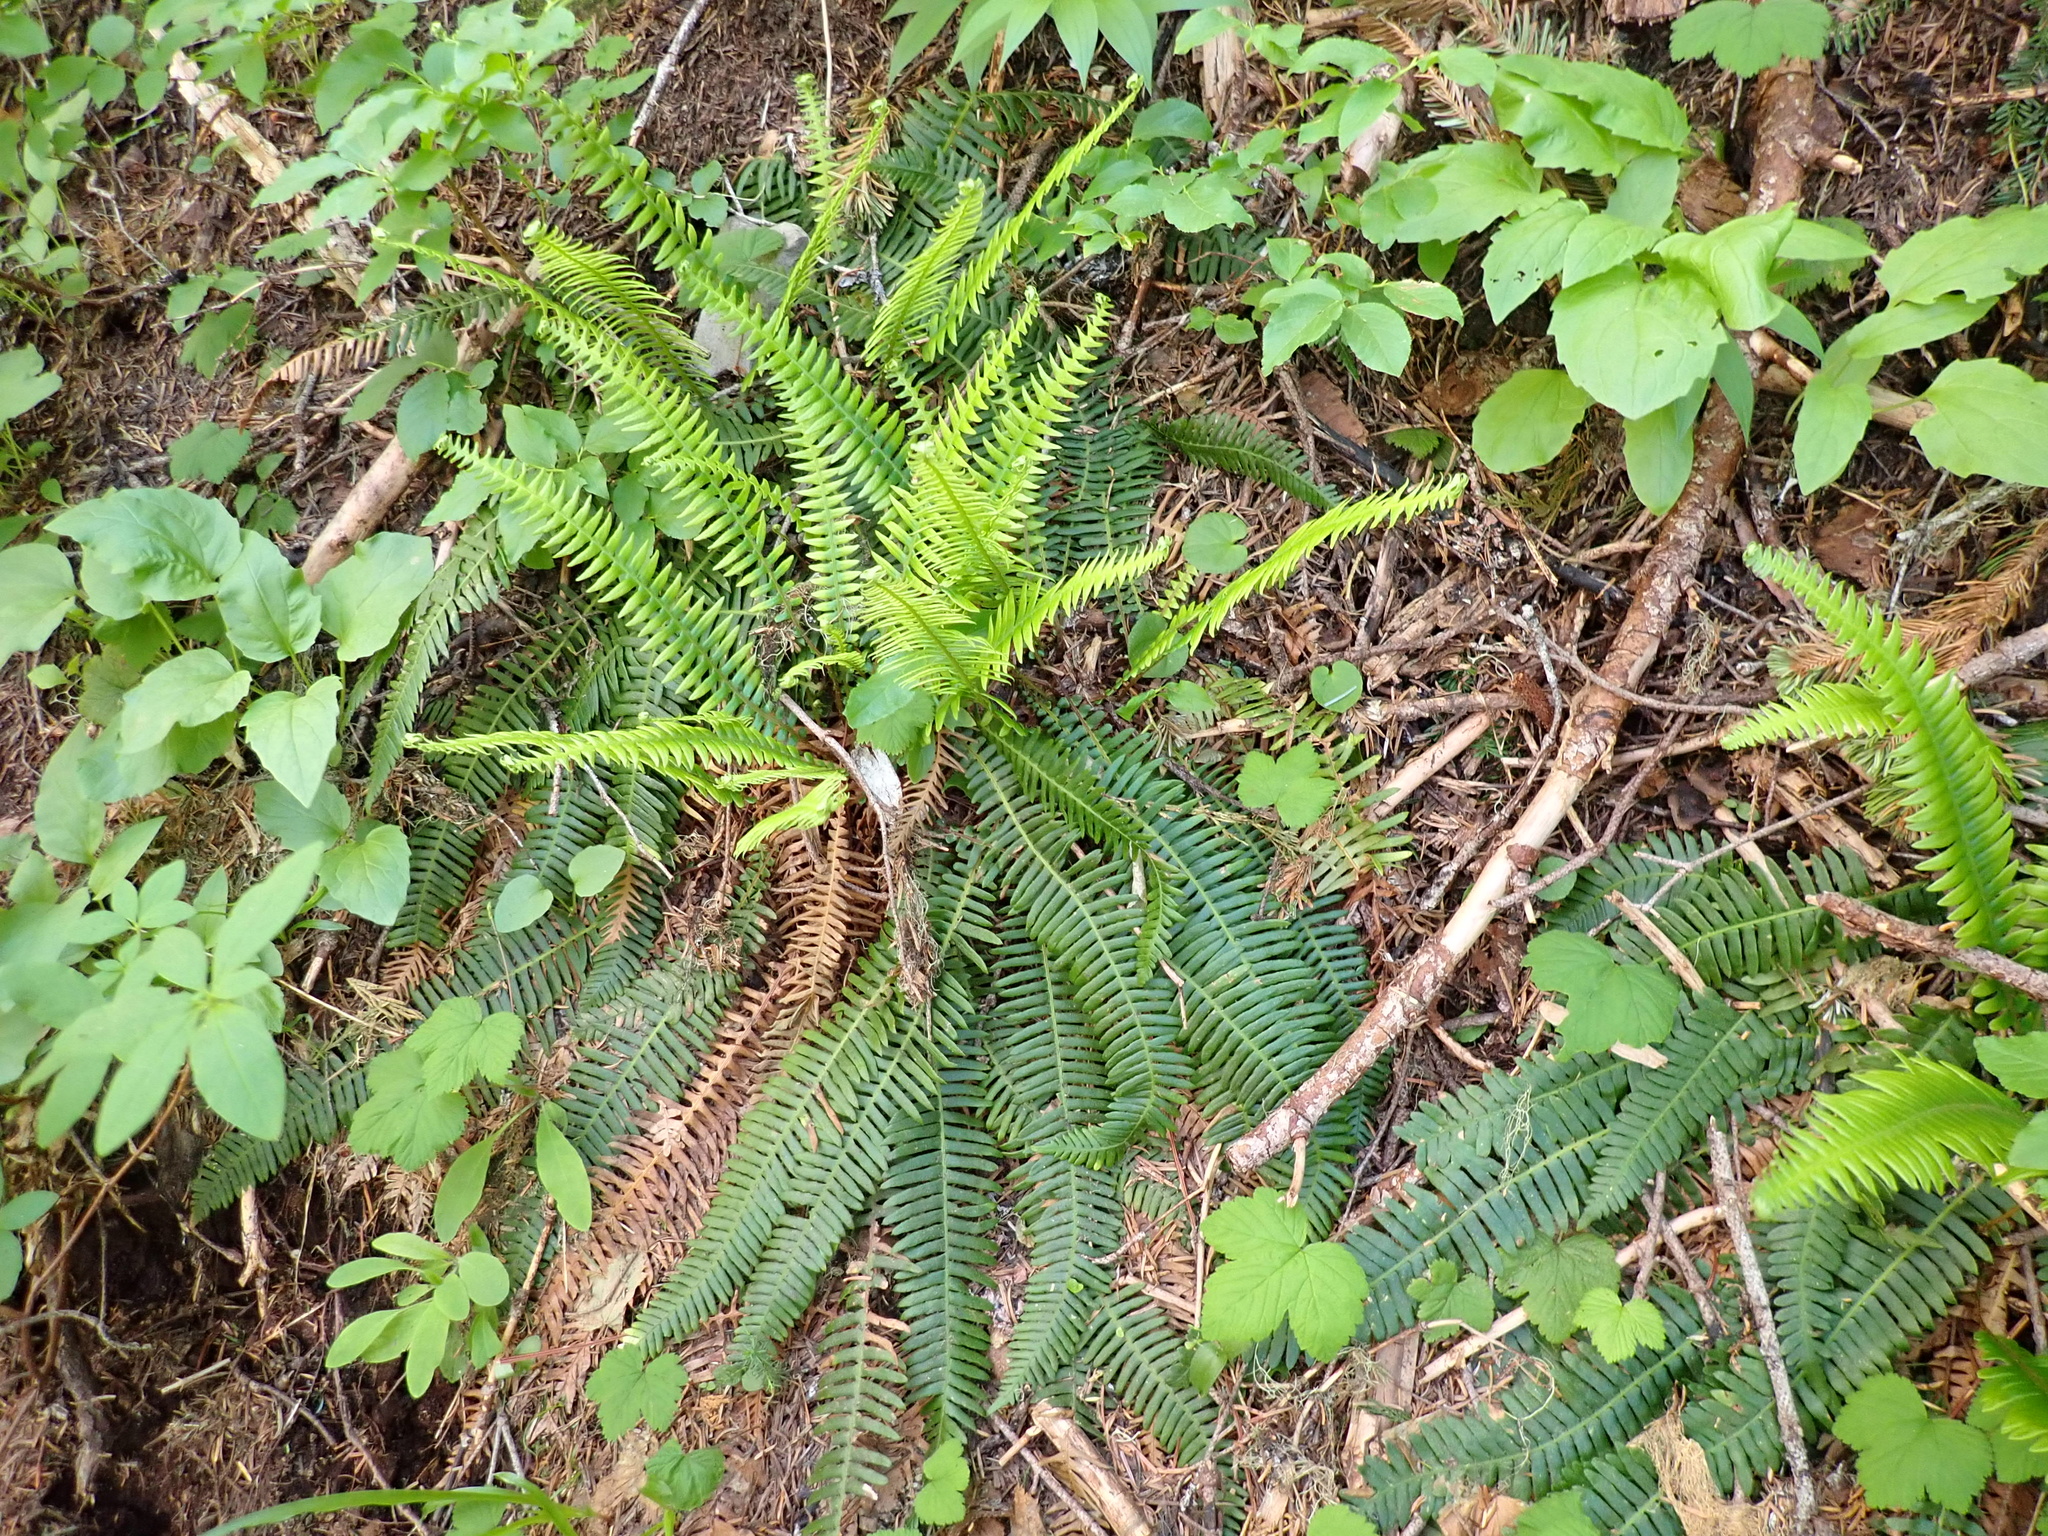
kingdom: Plantae
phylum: Tracheophyta
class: Polypodiopsida
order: Polypodiales
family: Blechnaceae
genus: Struthiopteris
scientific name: Struthiopteris spicant
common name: Deer fern
